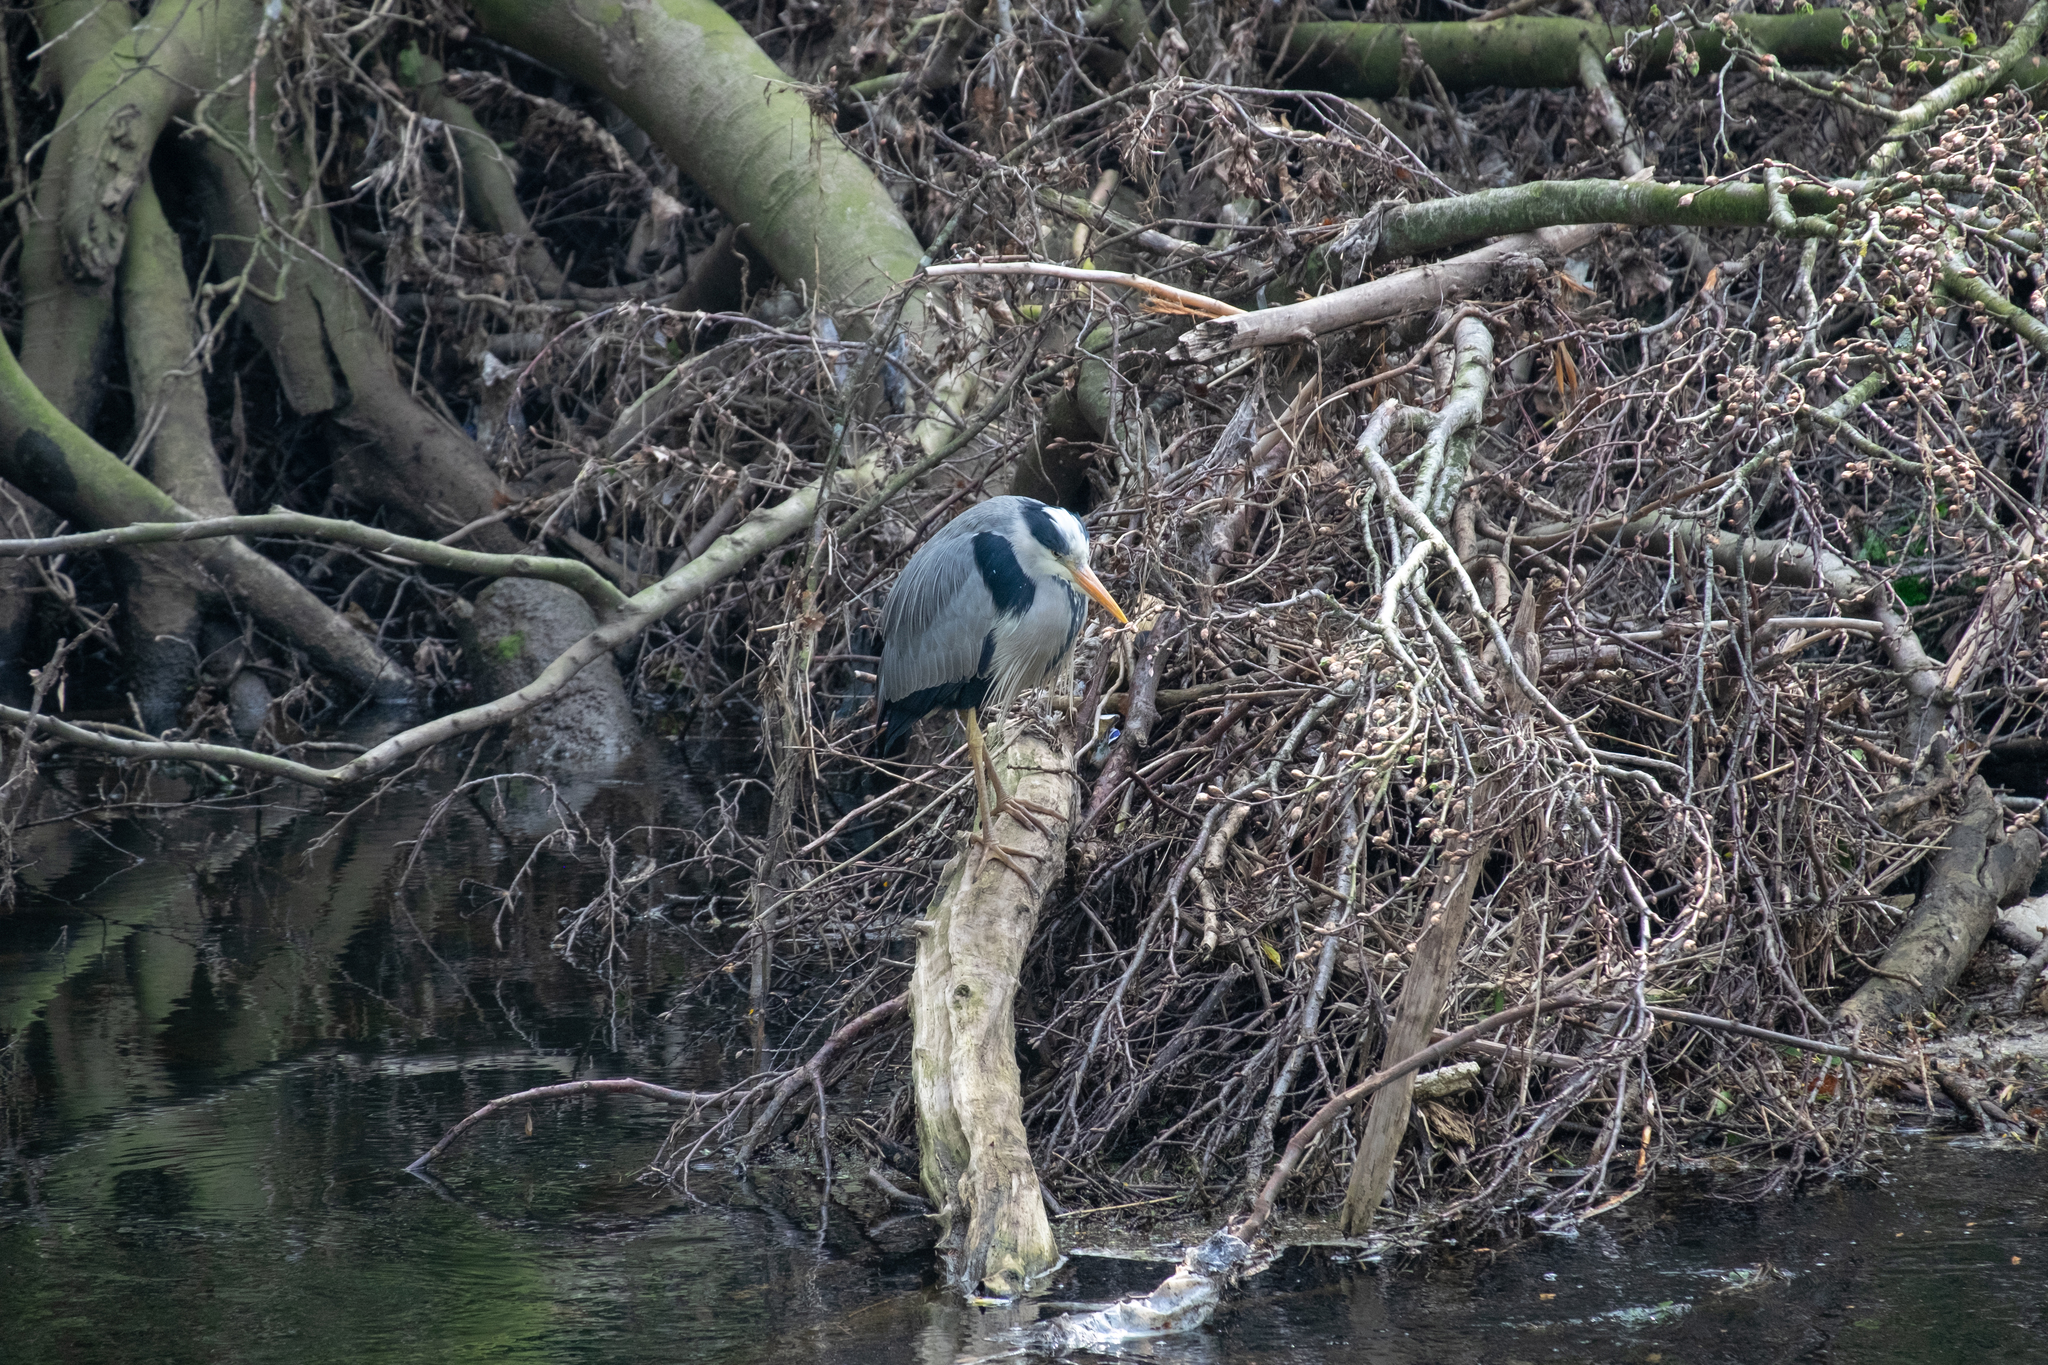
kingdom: Animalia
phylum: Chordata
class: Aves
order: Pelecaniformes
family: Ardeidae
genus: Ardea
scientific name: Ardea cinerea
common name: Grey heron
